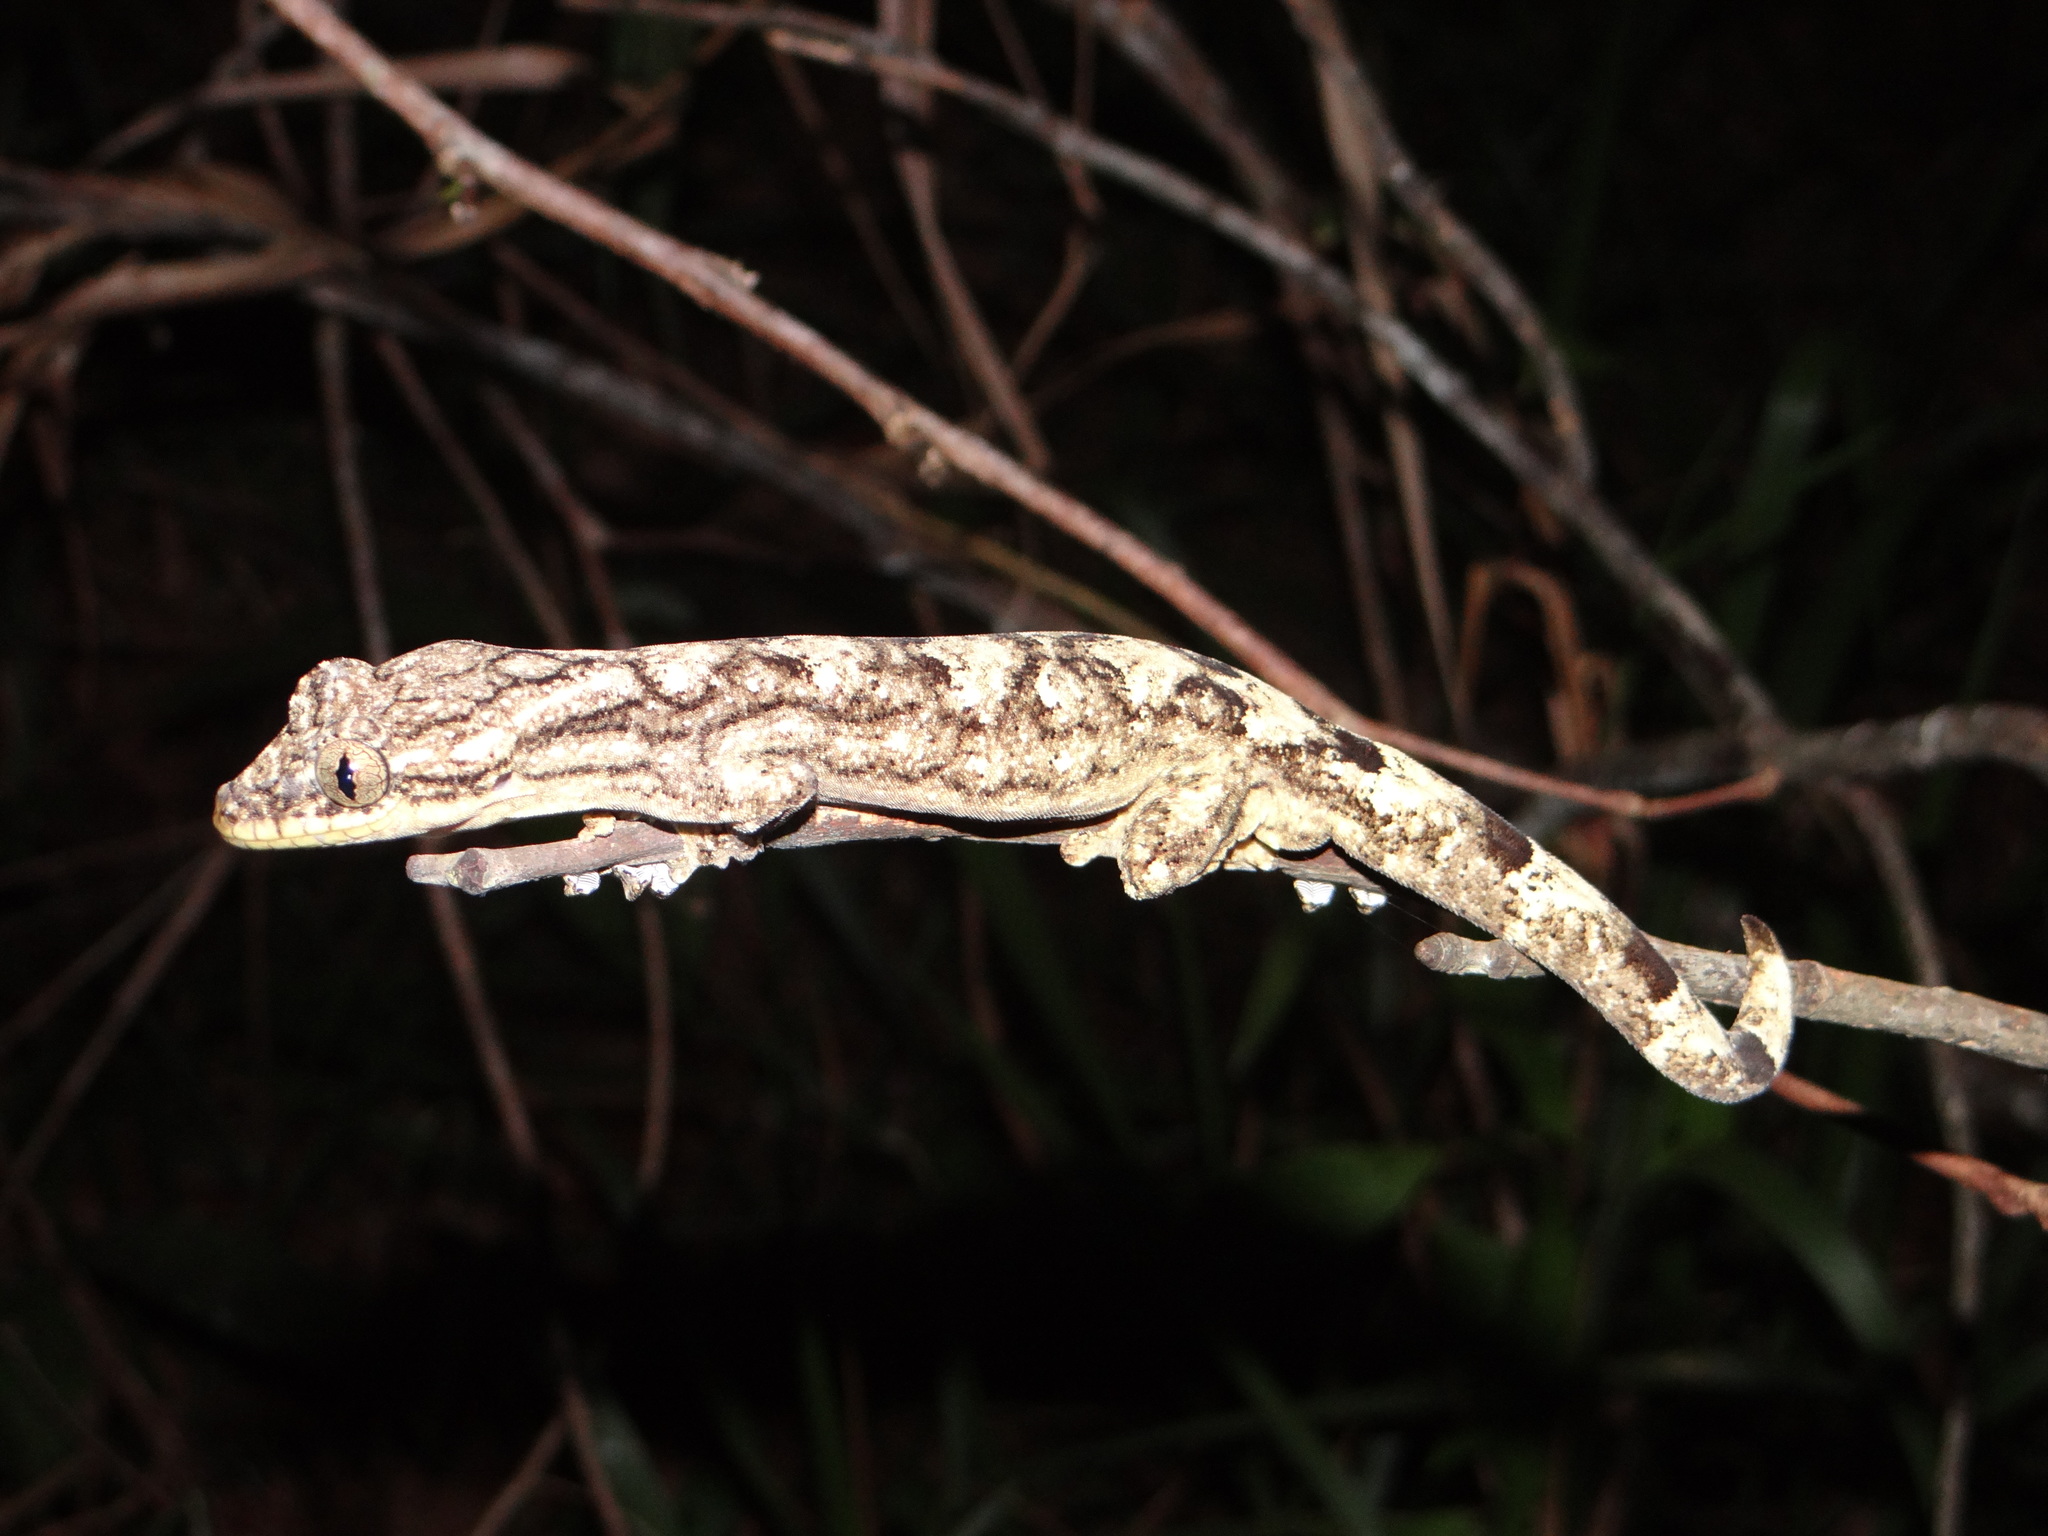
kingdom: Animalia
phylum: Chordata
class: Squamata
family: Phyllodactylidae
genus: Thecadactylus
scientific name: Thecadactylus solimoensis
